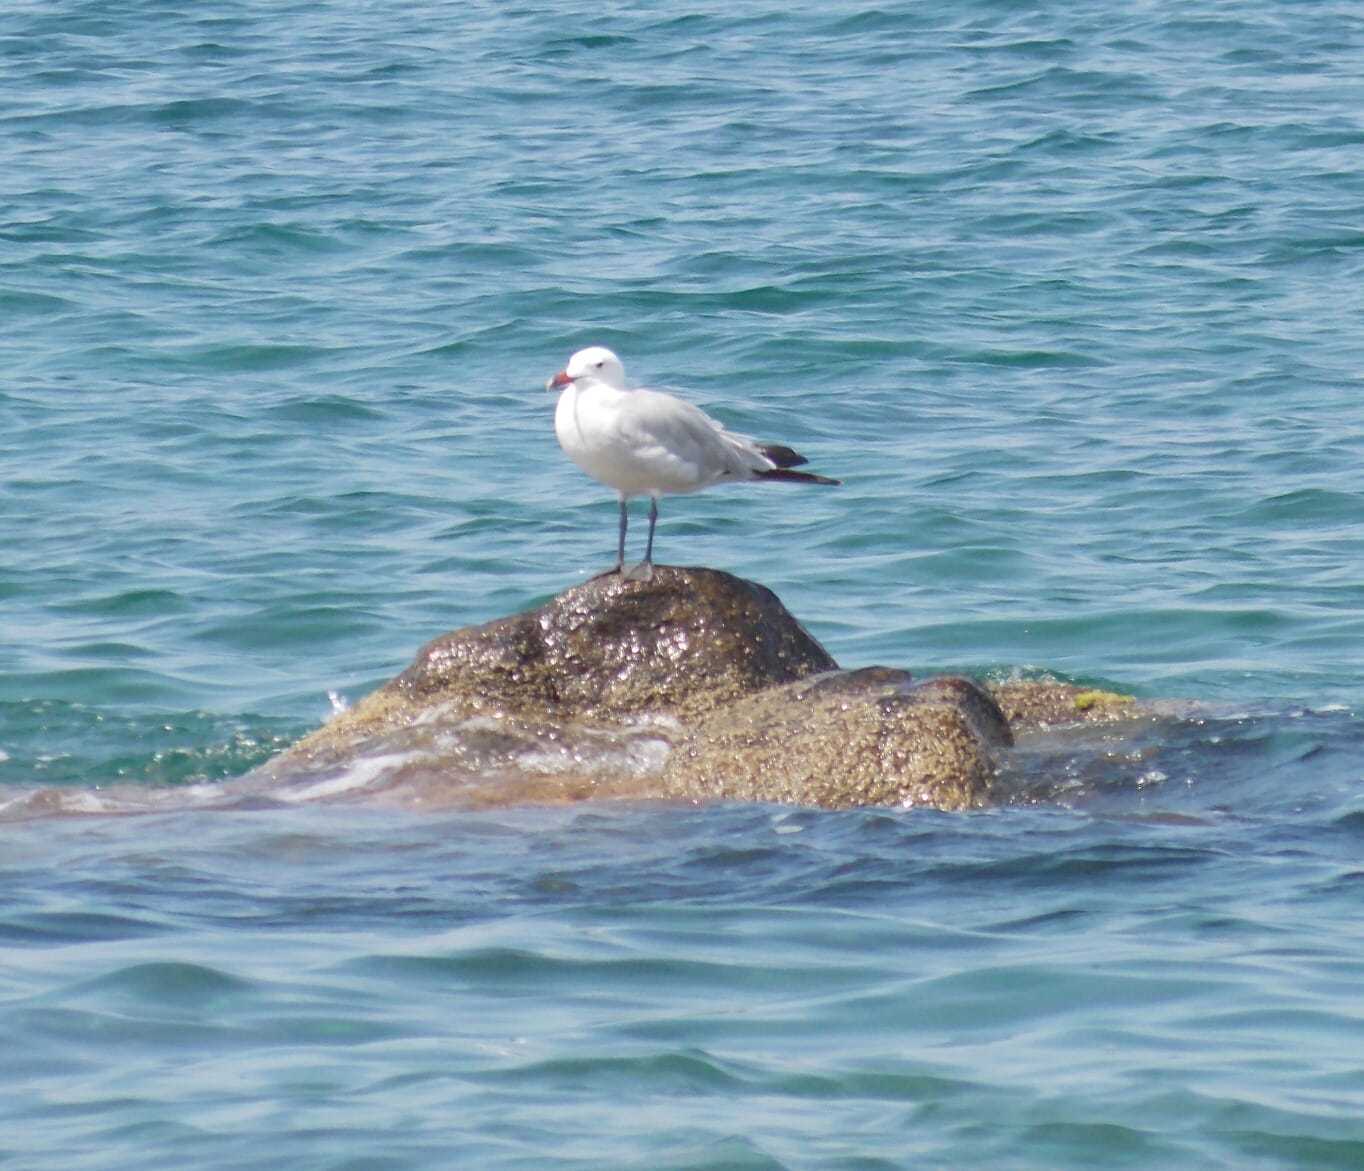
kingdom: Animalia
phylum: Chordata
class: Aves
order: Charadriiformes
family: Laridae
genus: Ichthyaetus
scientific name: Ichthyaetus audouinii
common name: Audouin's gull
